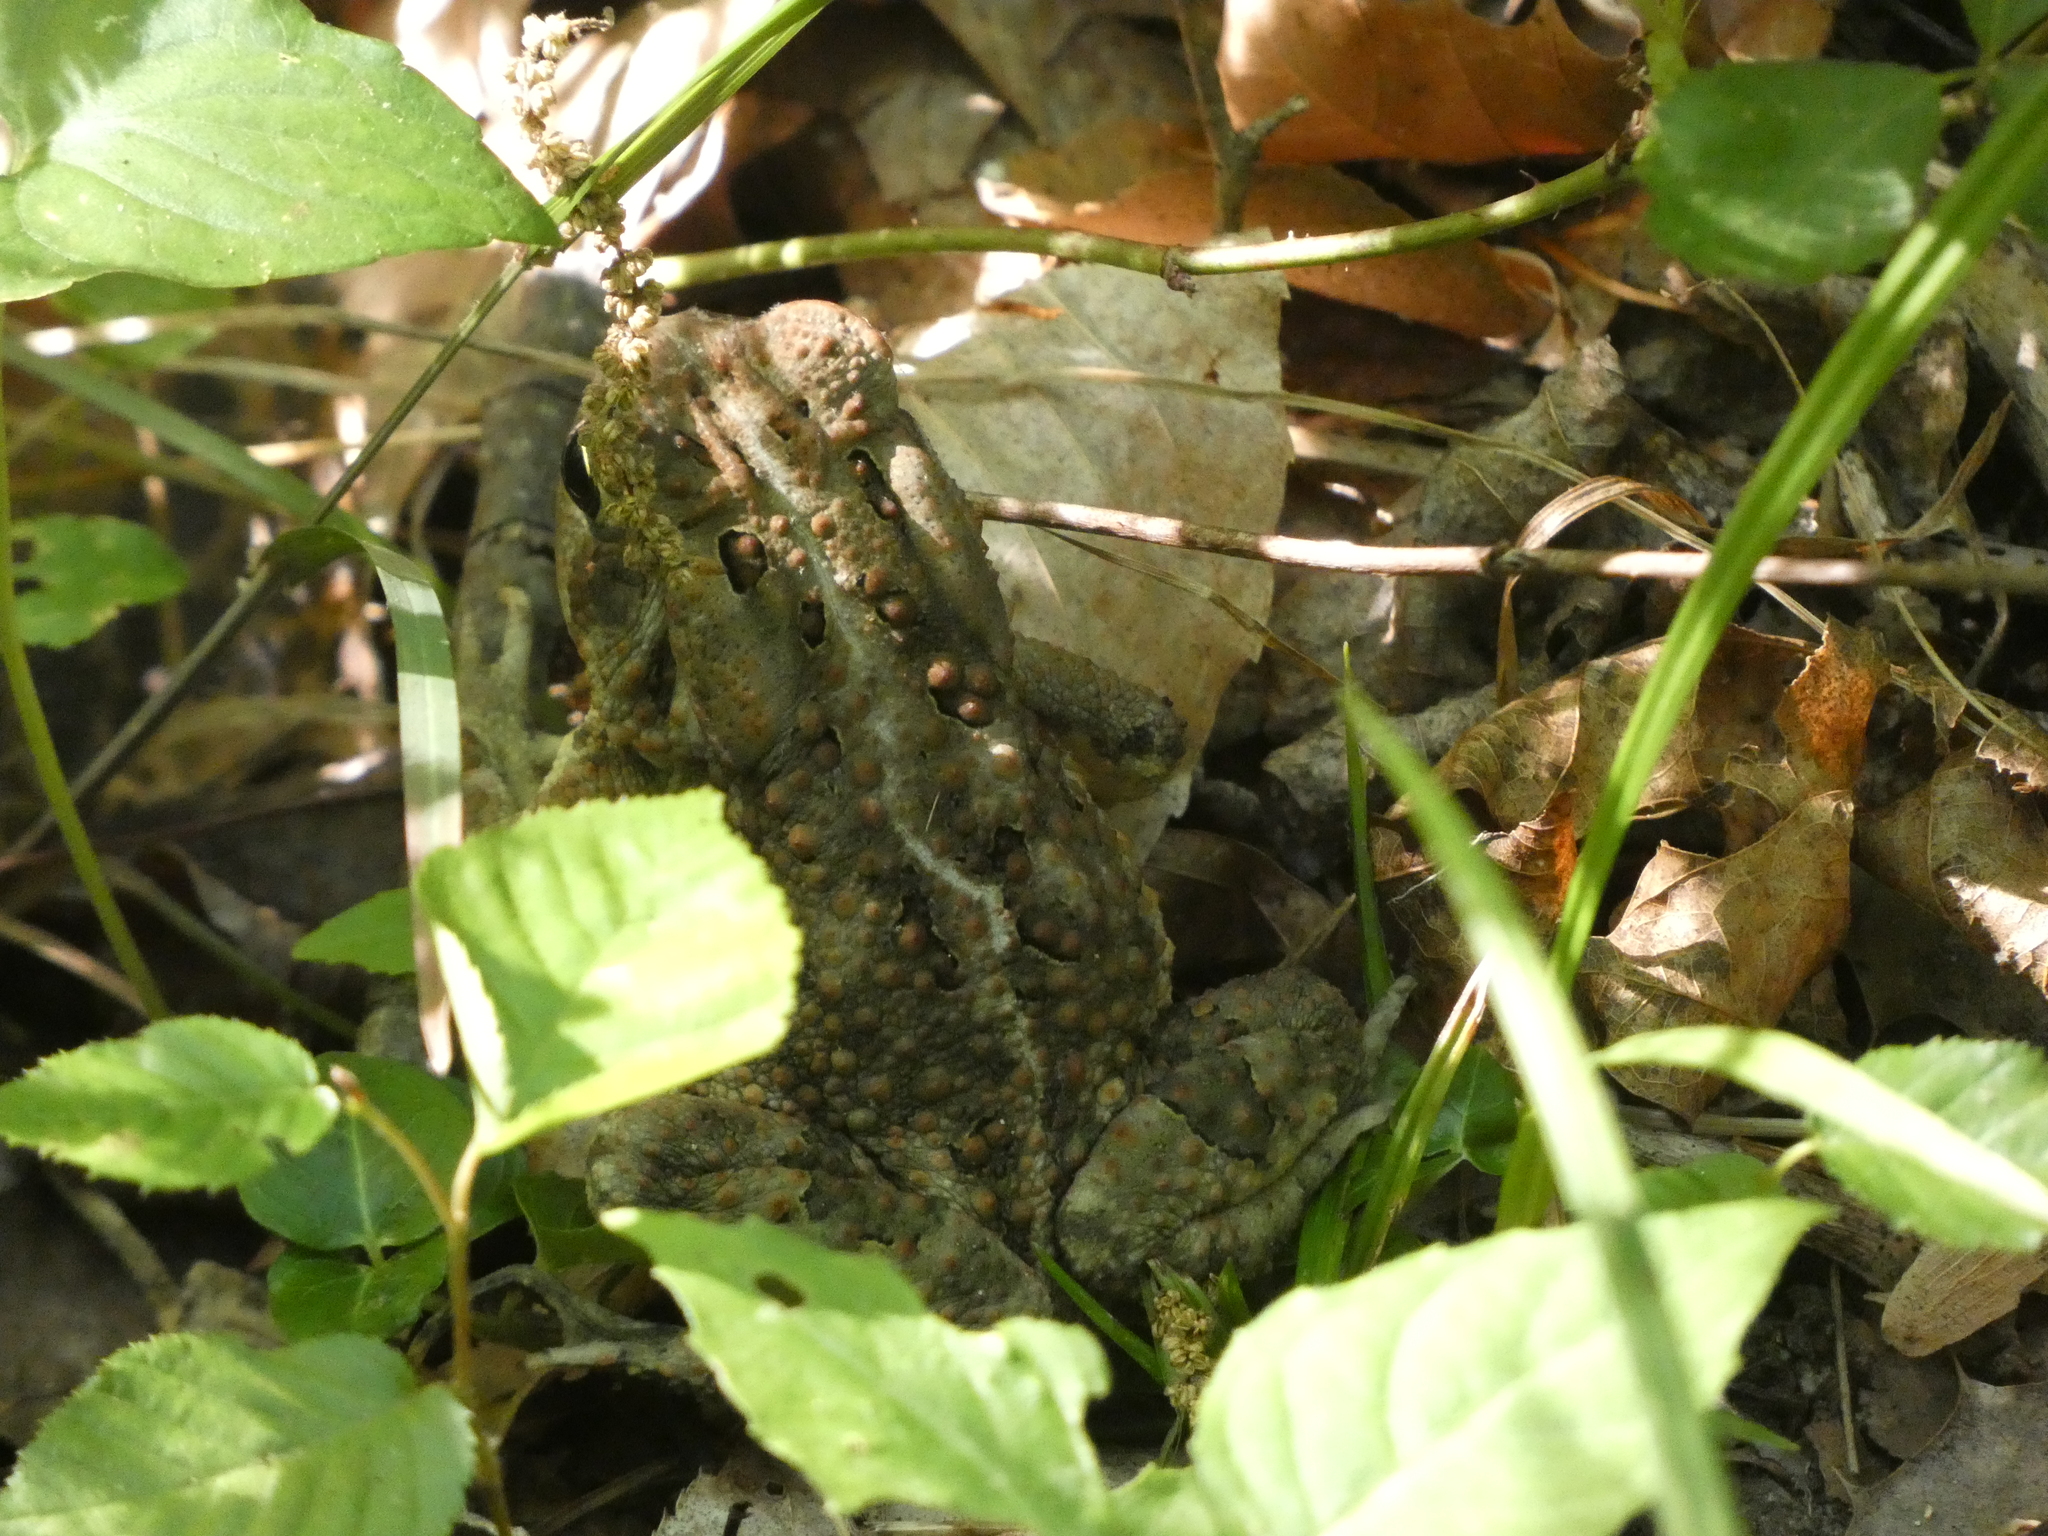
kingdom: Animalia
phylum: Chordata
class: Amphibia
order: Anura
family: Bufonidae
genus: Anaxyrus
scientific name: Anaxyrus americanus
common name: American toad
